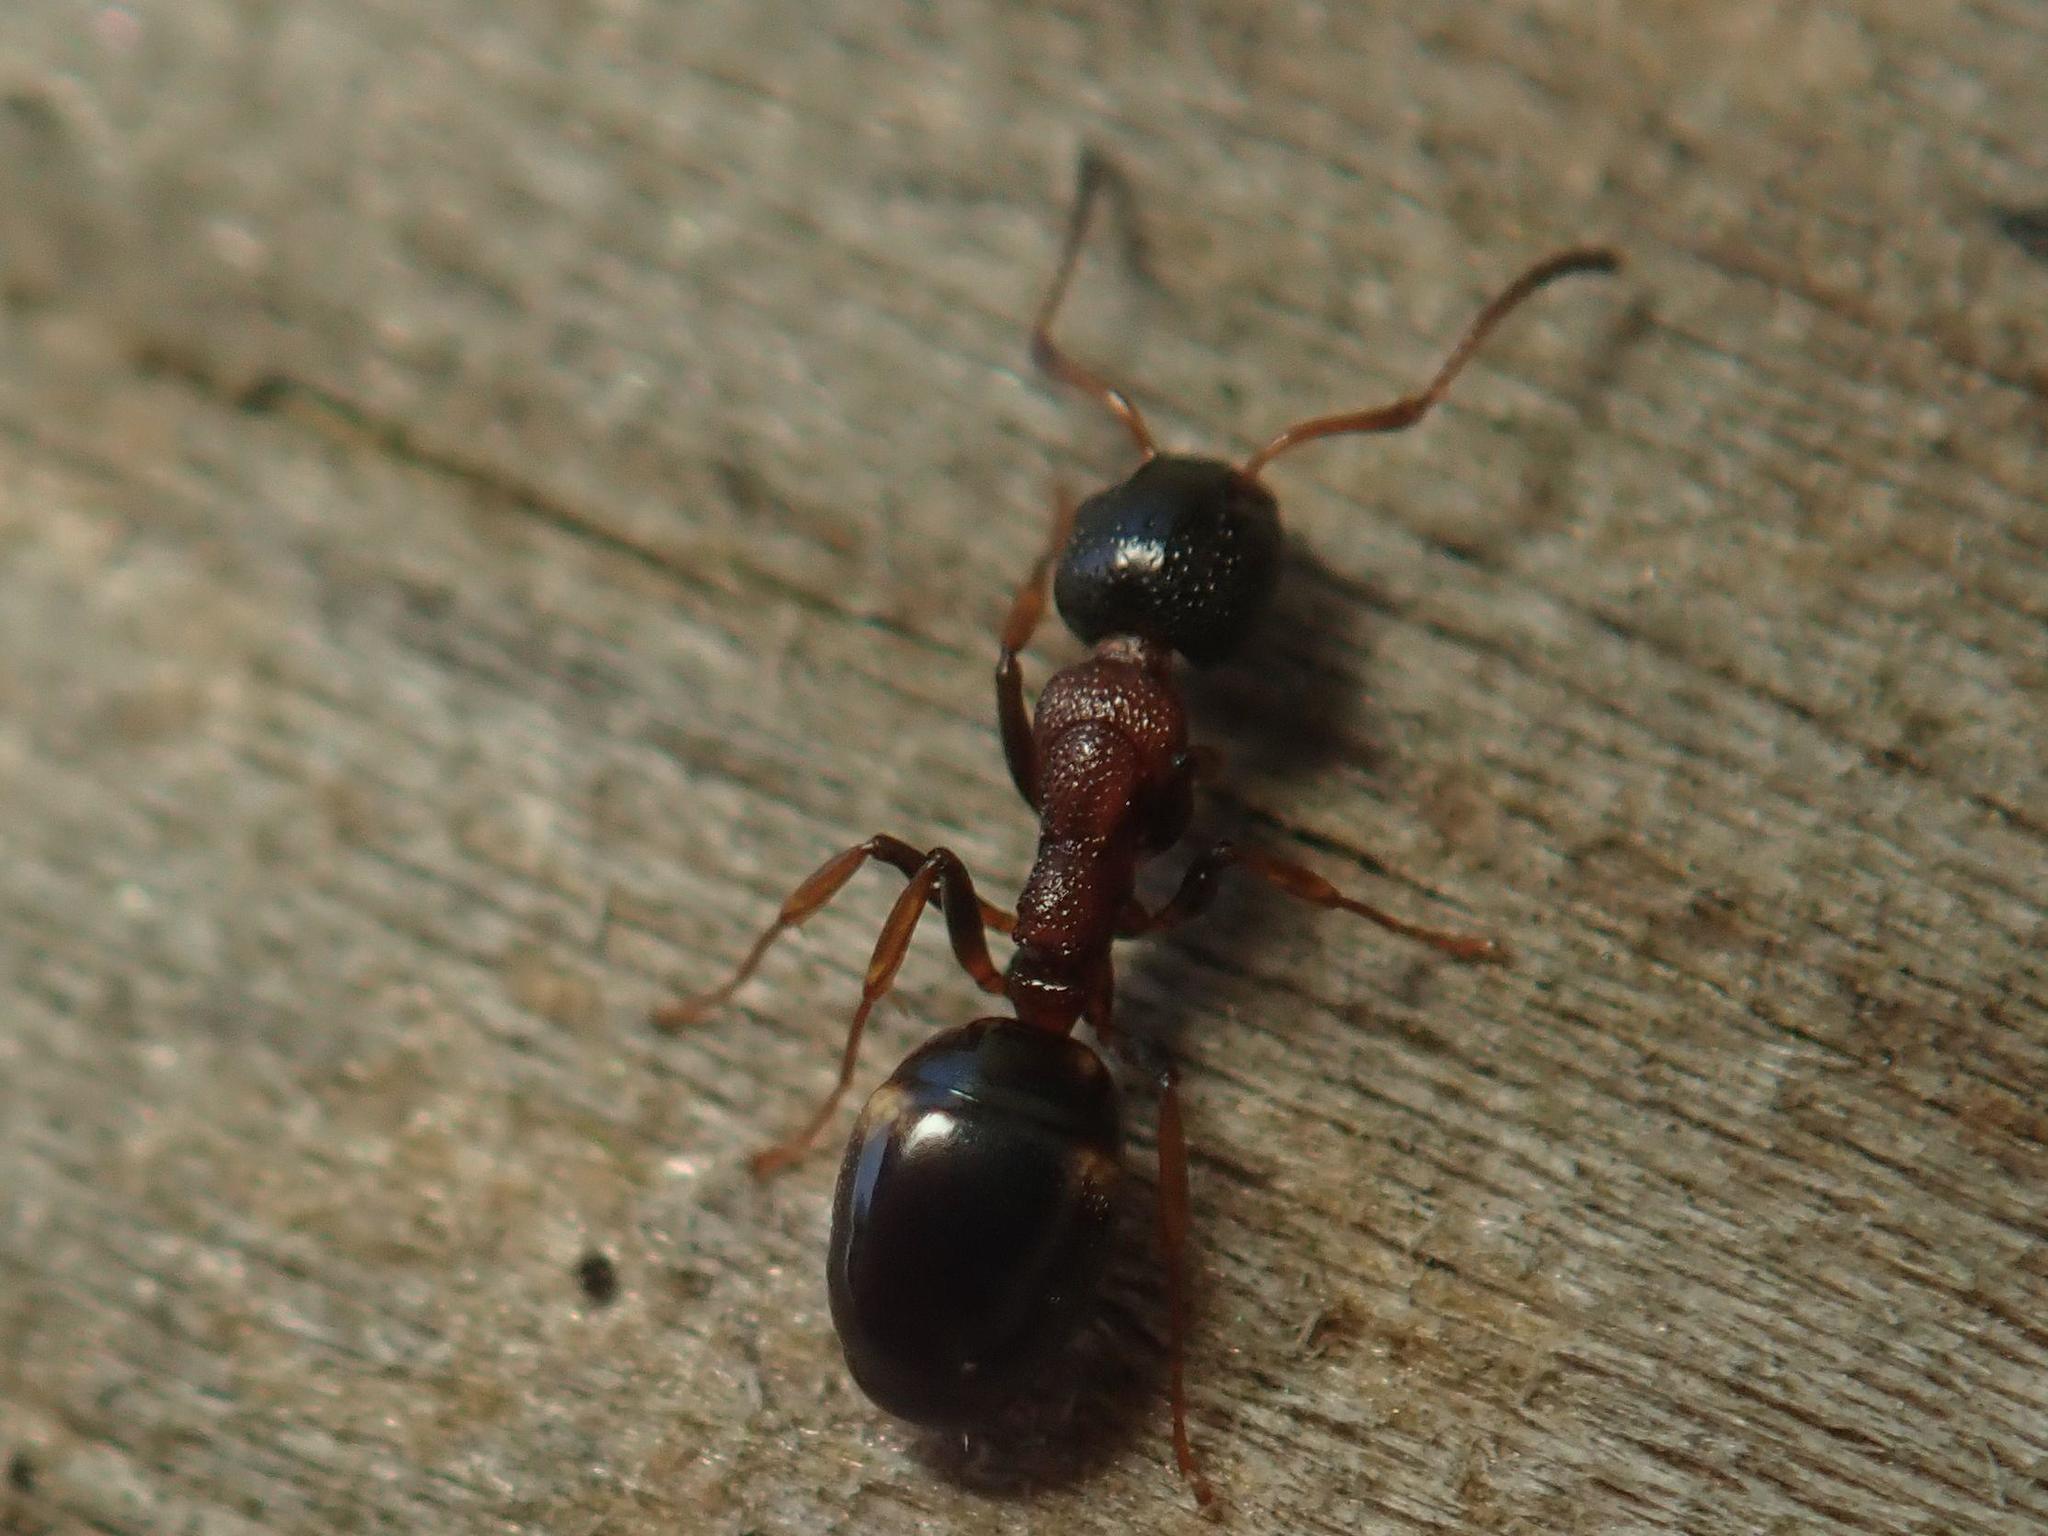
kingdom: Animalia
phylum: Arthropoda
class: Insecta
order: Hymenoptera
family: Formicidae
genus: Dolichoderus
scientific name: Dolichoderus quadripunctatus
